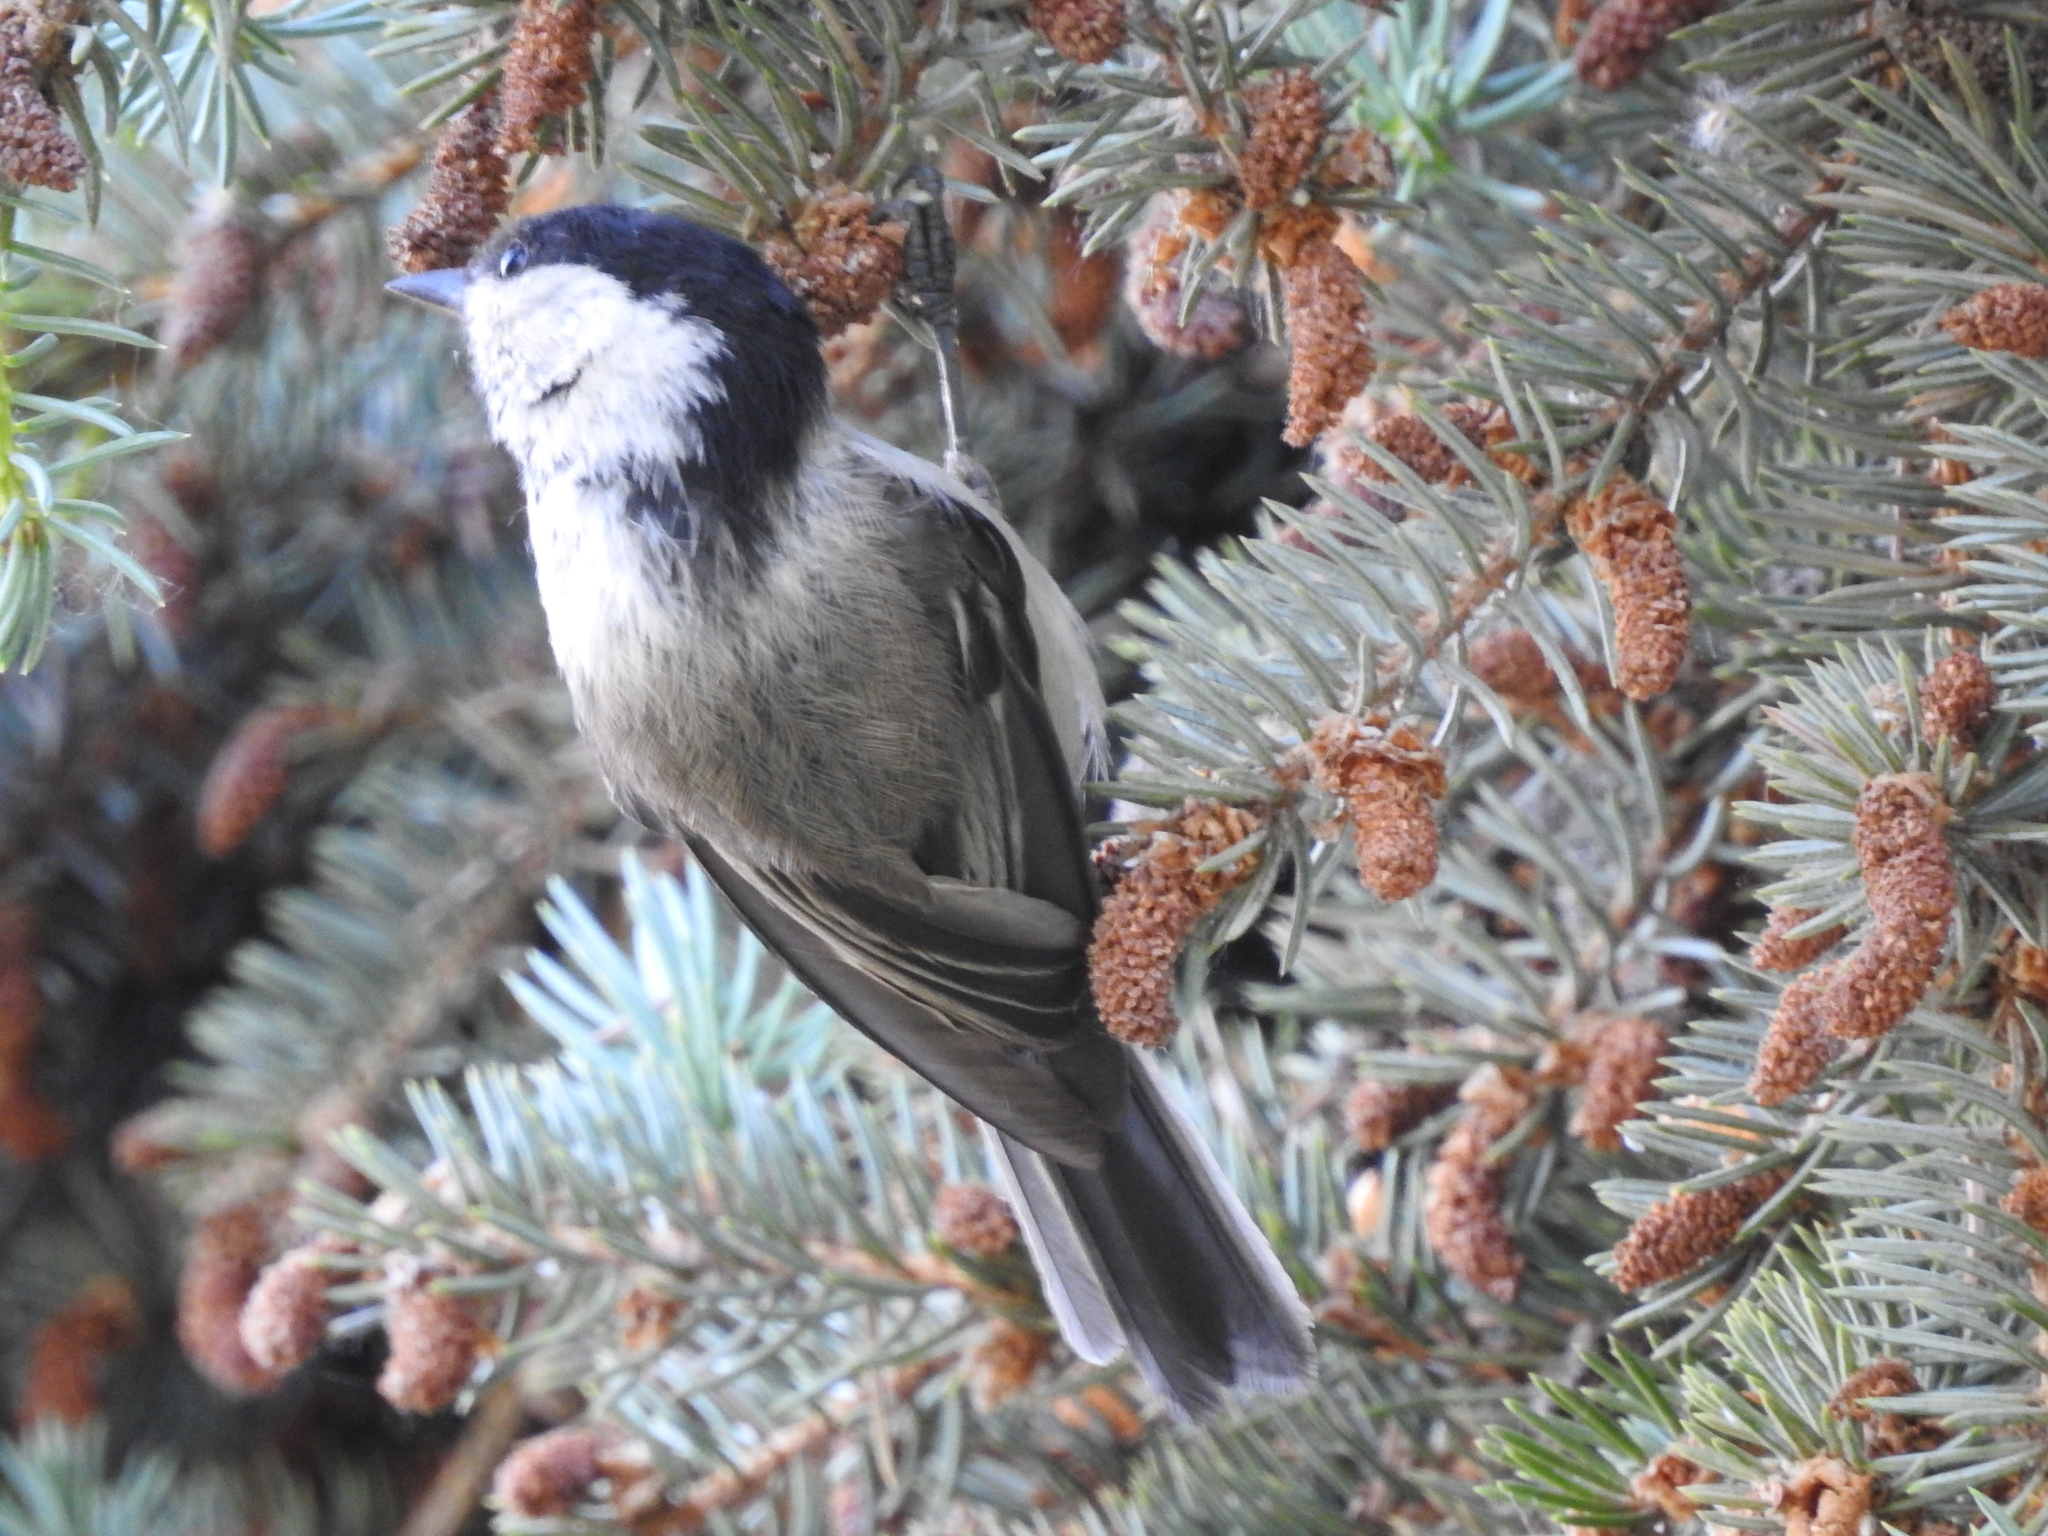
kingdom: Animalia
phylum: Chordata
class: Aves
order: Passeriformes
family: Paridae
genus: Poecile
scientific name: Poecile montanus
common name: Willow tit
